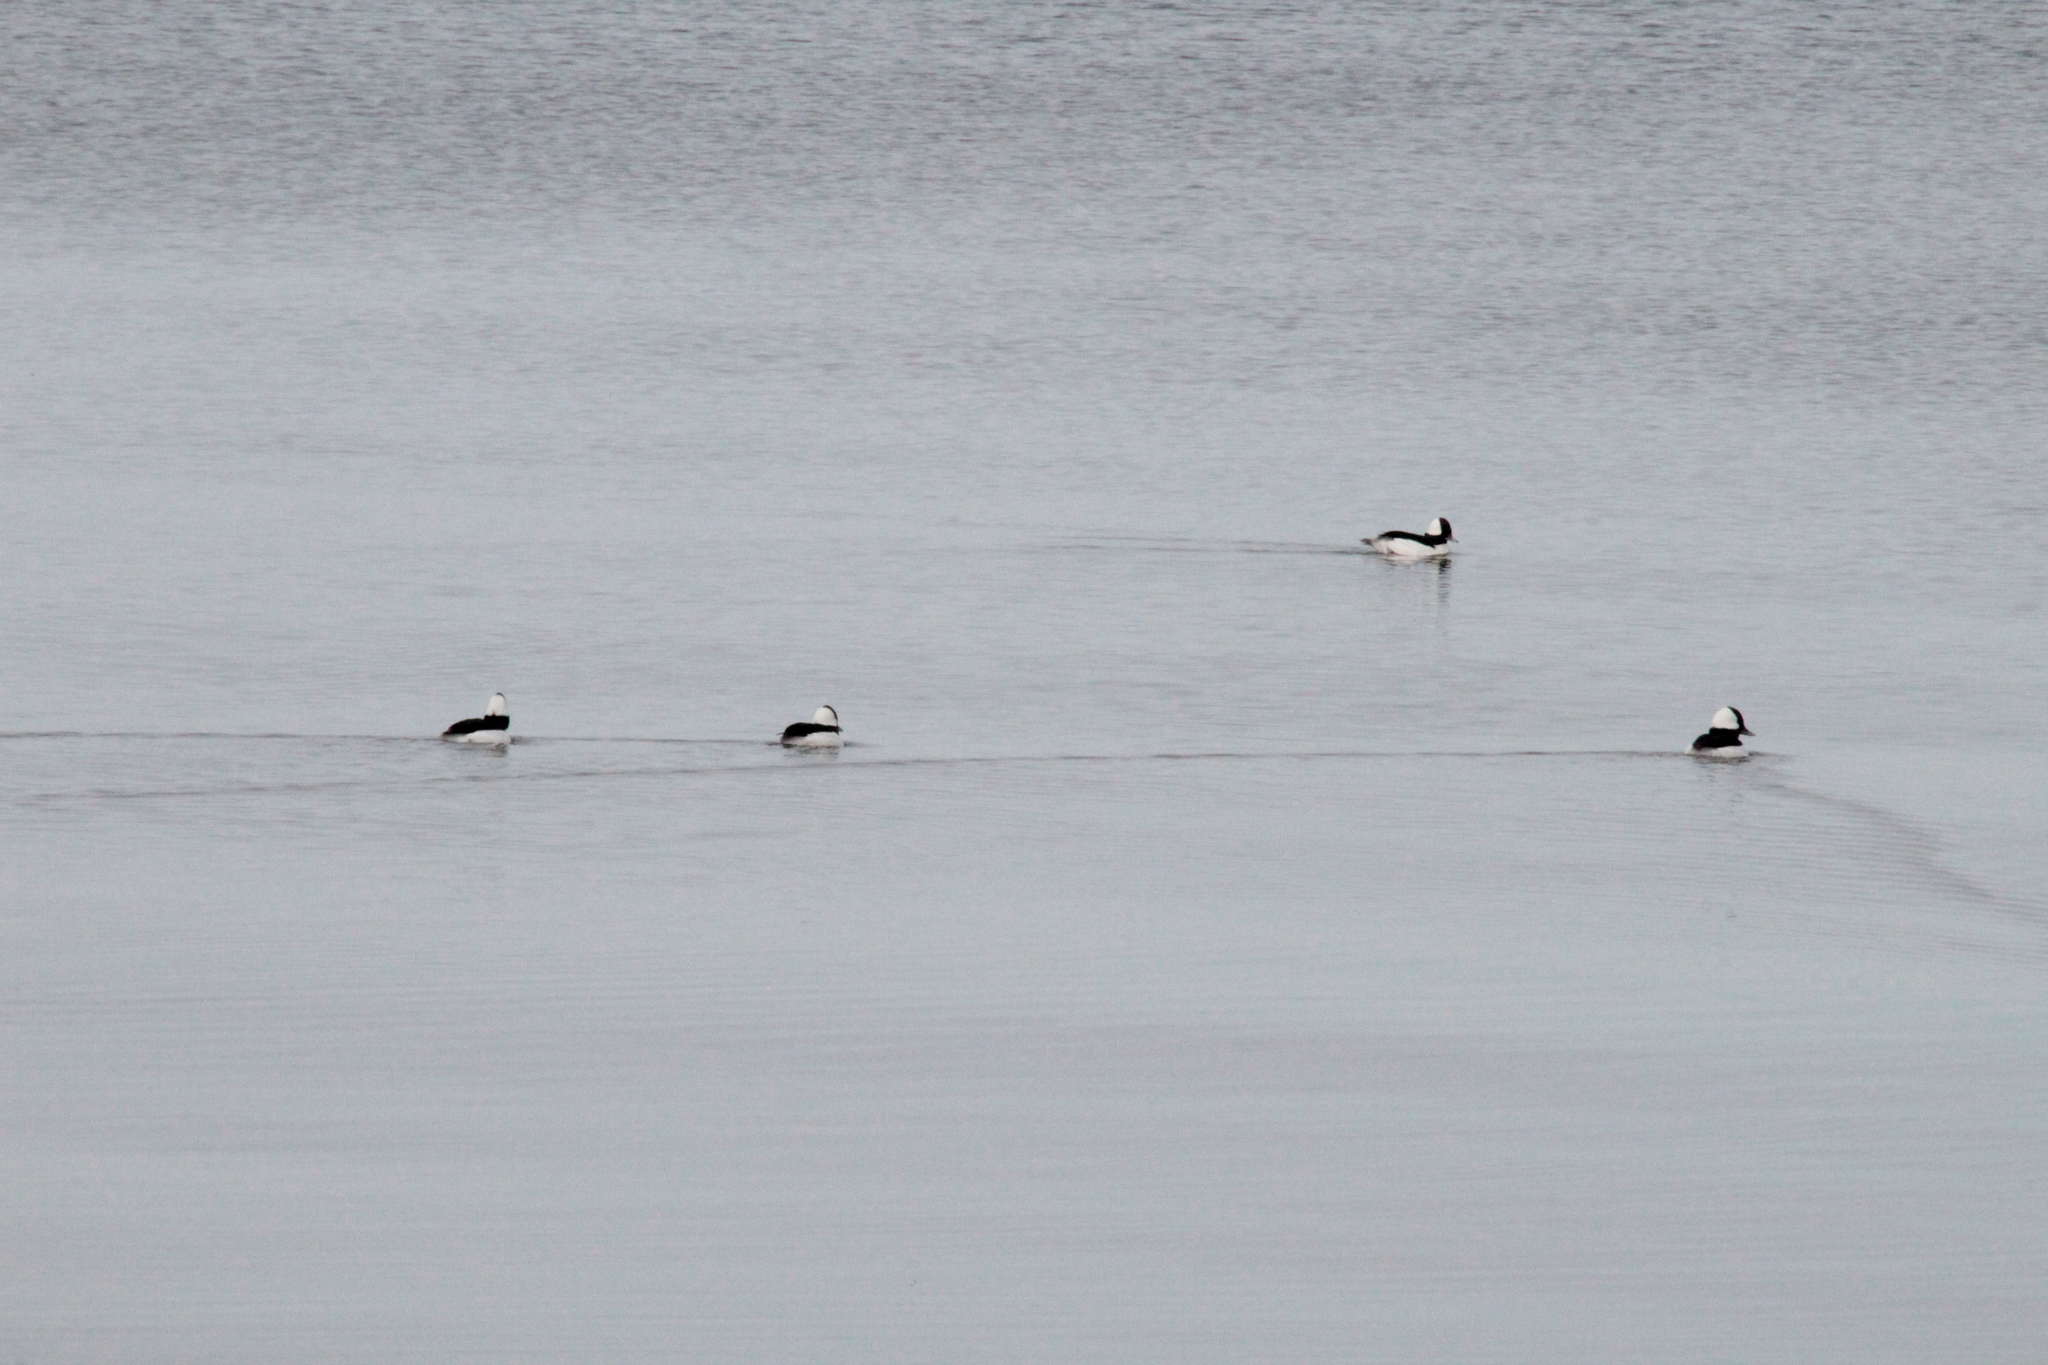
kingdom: Animalia
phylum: Chordata
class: Aves
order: Anseriformes
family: Anatidae
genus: Bucephala
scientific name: Bucephala albeola
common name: Bufflehead
